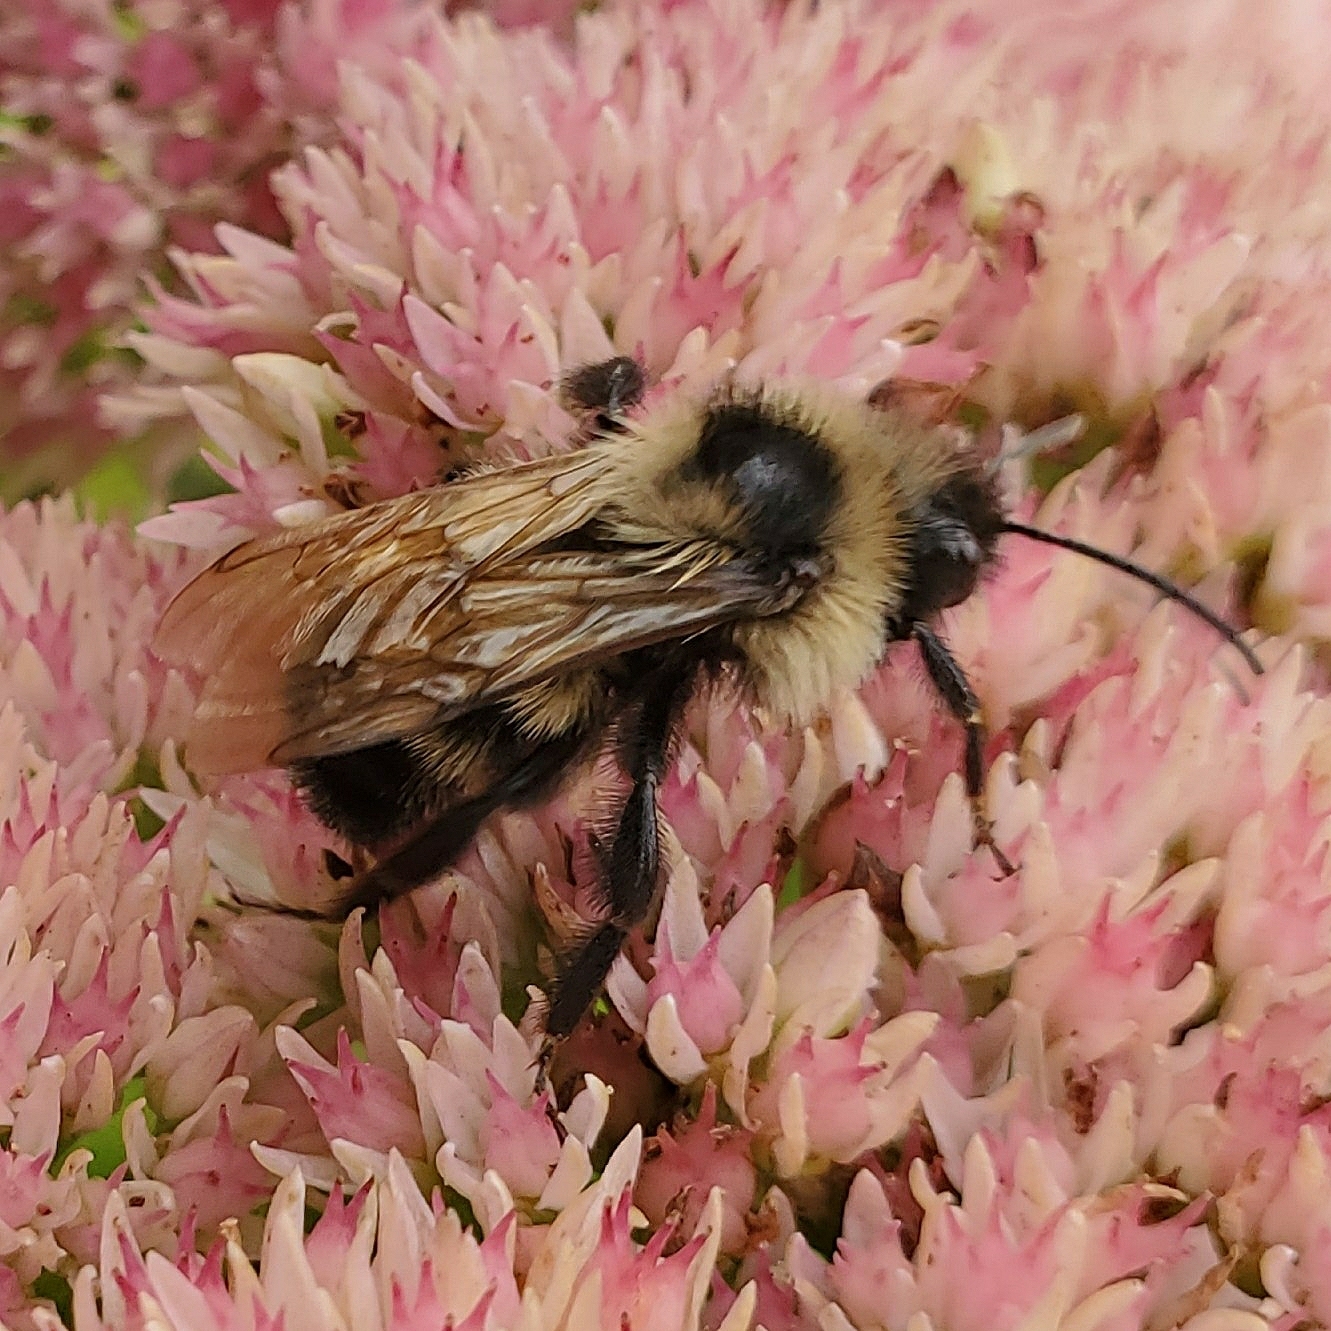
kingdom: Animalia
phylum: Arthropoda
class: Insecta
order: Hymenoptera
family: Apidae
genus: Bombus
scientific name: Bombus citrinus
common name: Lemon cuckoo bumble bee
